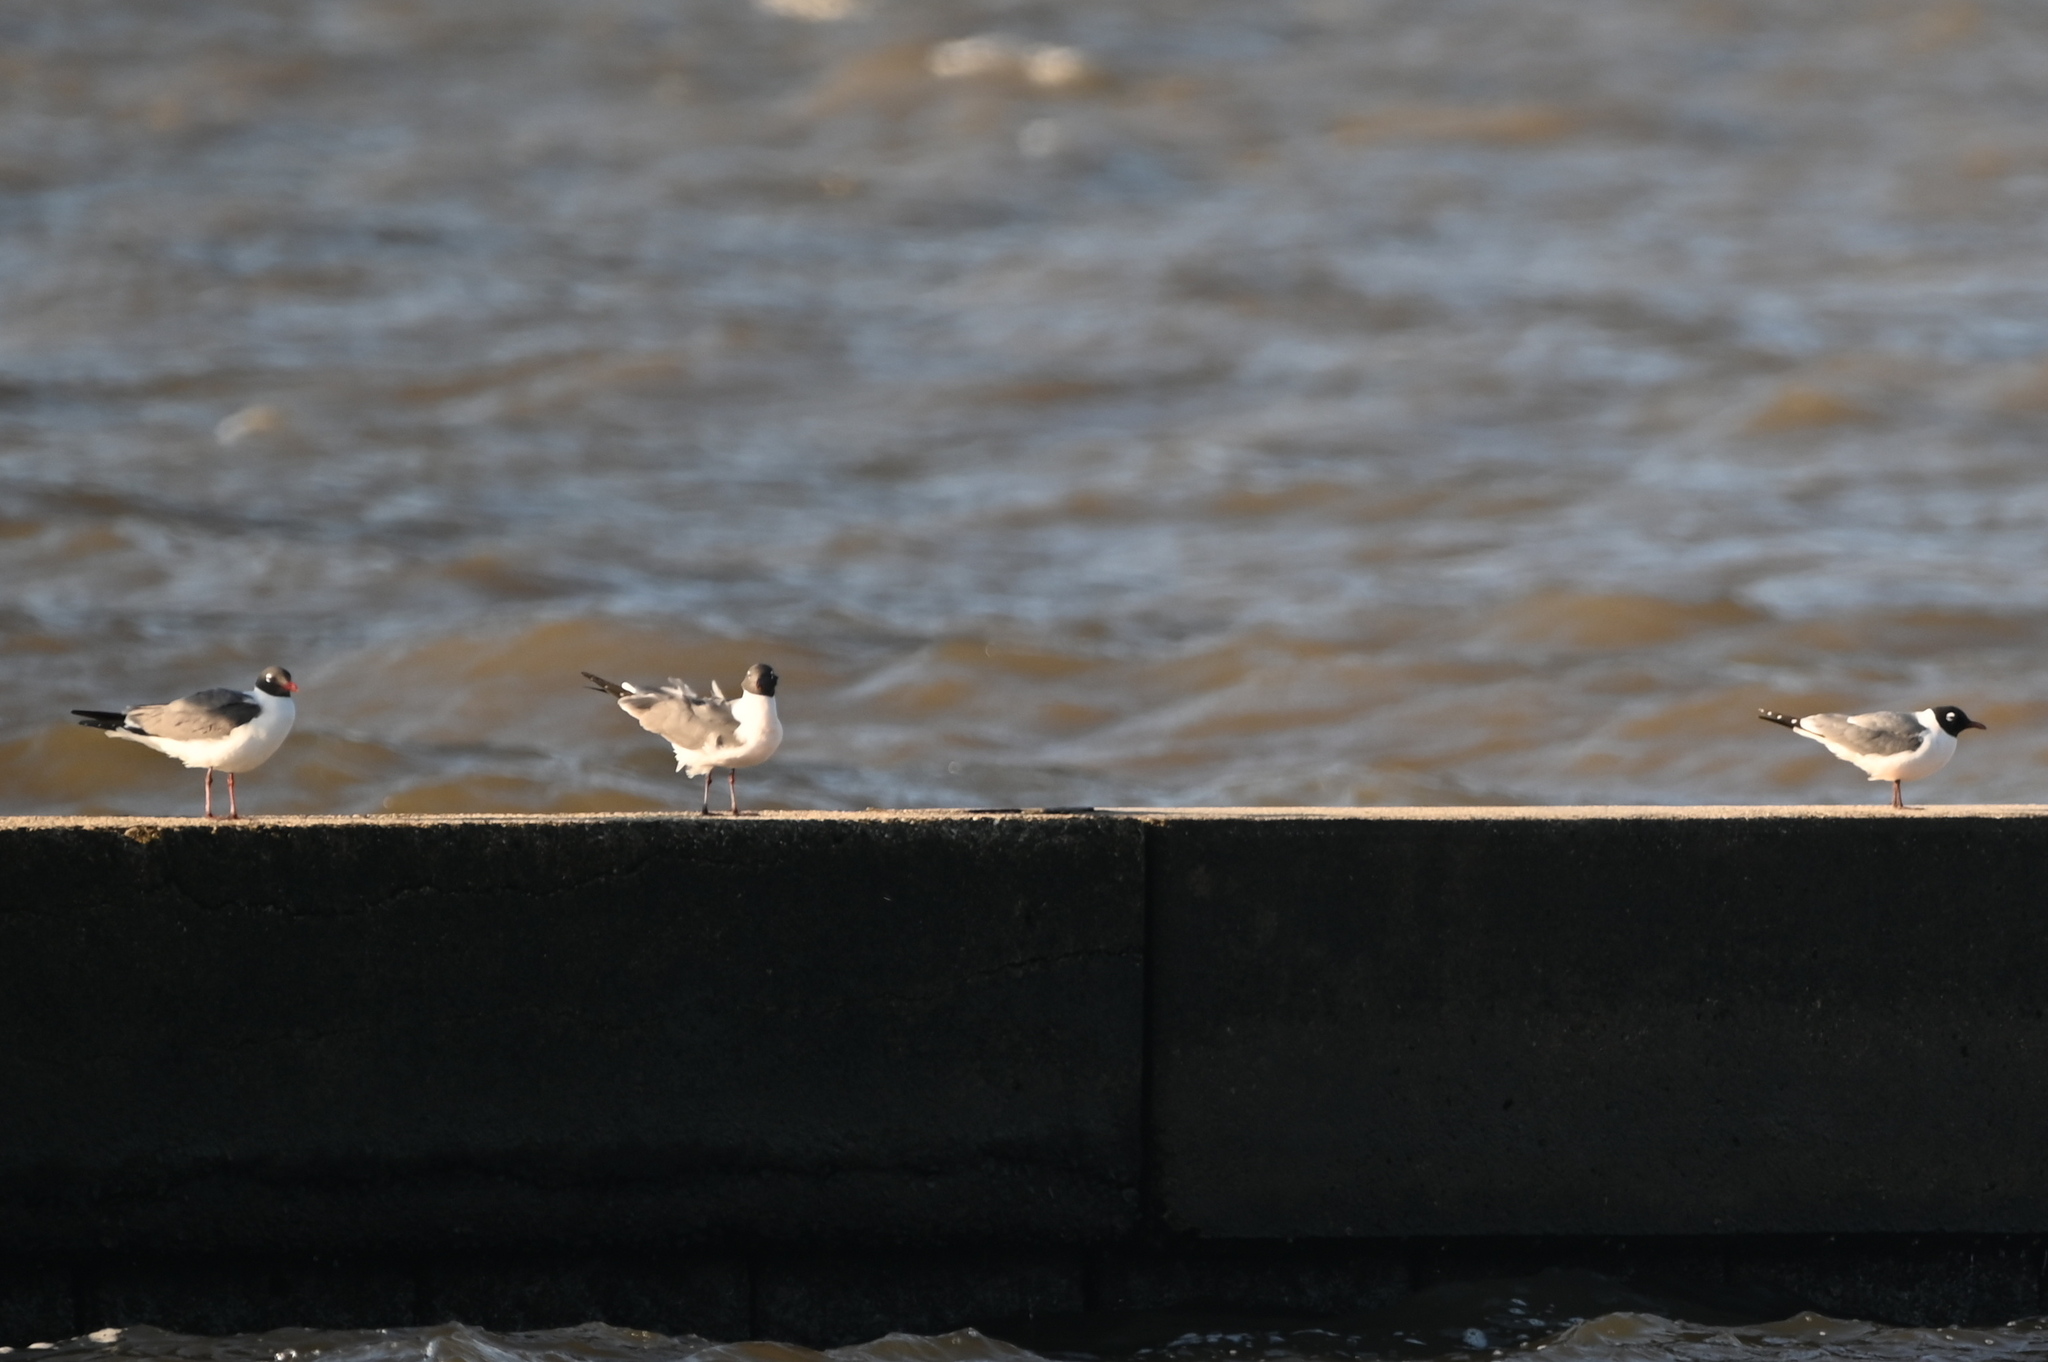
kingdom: Animalia
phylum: Chordata
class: Aves
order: Charadriiformes
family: Laridae
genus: Leucophaeus
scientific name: Leucophaeus pipixcan
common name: Franklin's gull
